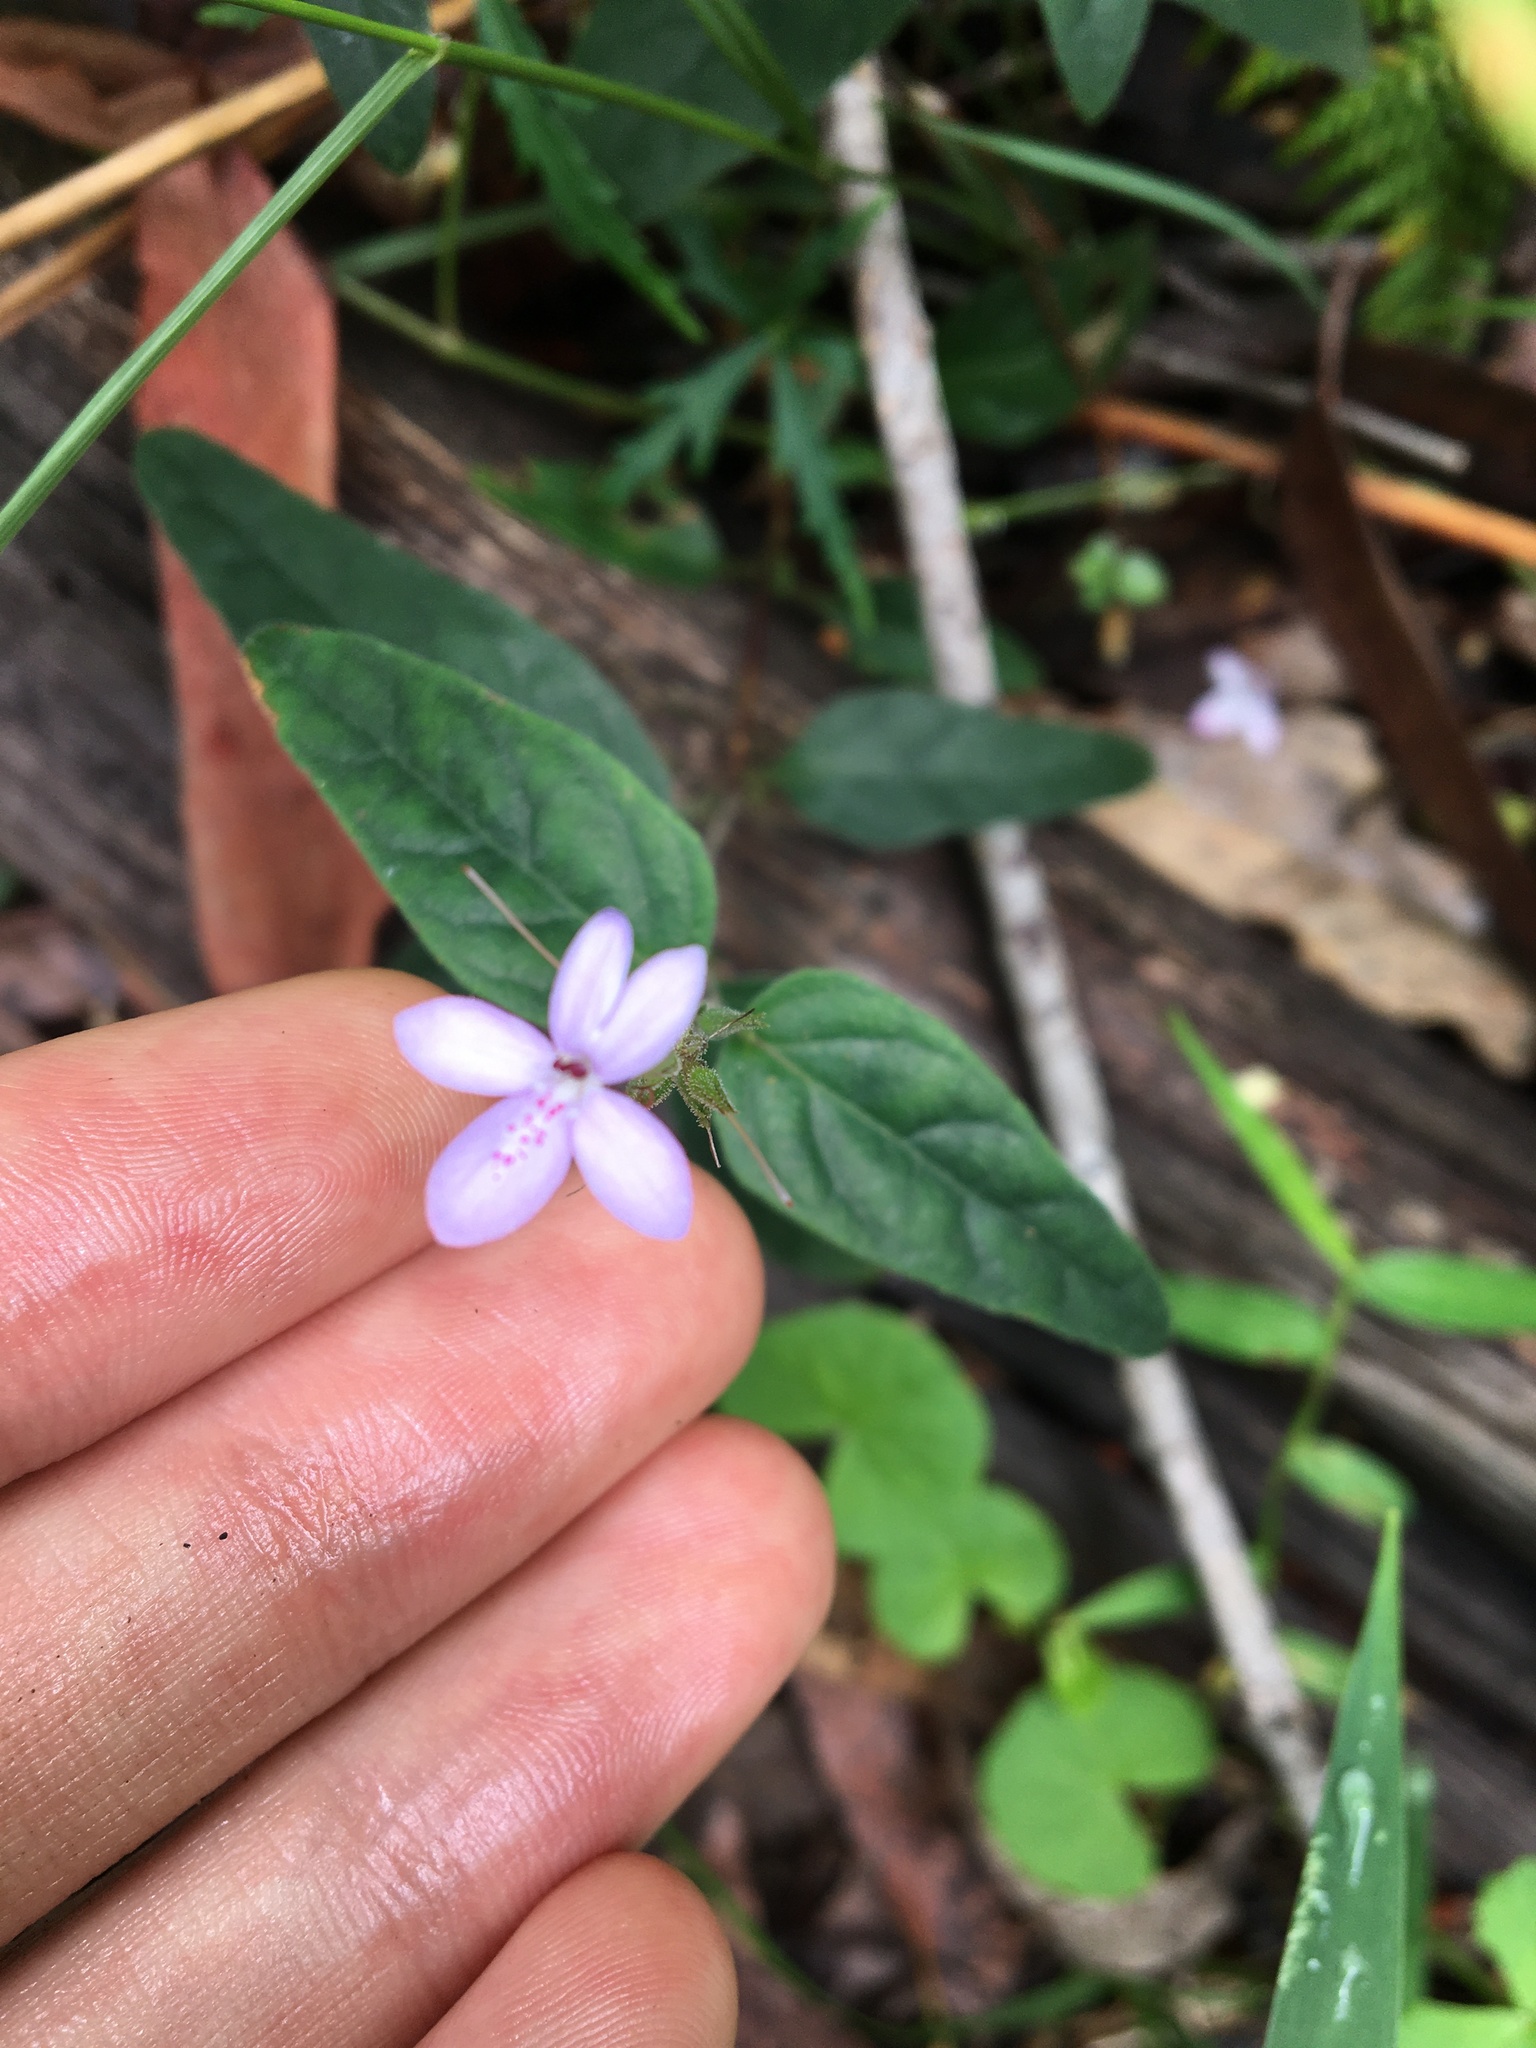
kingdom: Plantae
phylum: Tracheophyta
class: Magnoliopsida
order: Lamiales
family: Acanthaceae
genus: Pseuderanthemum
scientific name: Pseuderanthemum variabile
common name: Night and afternoon
